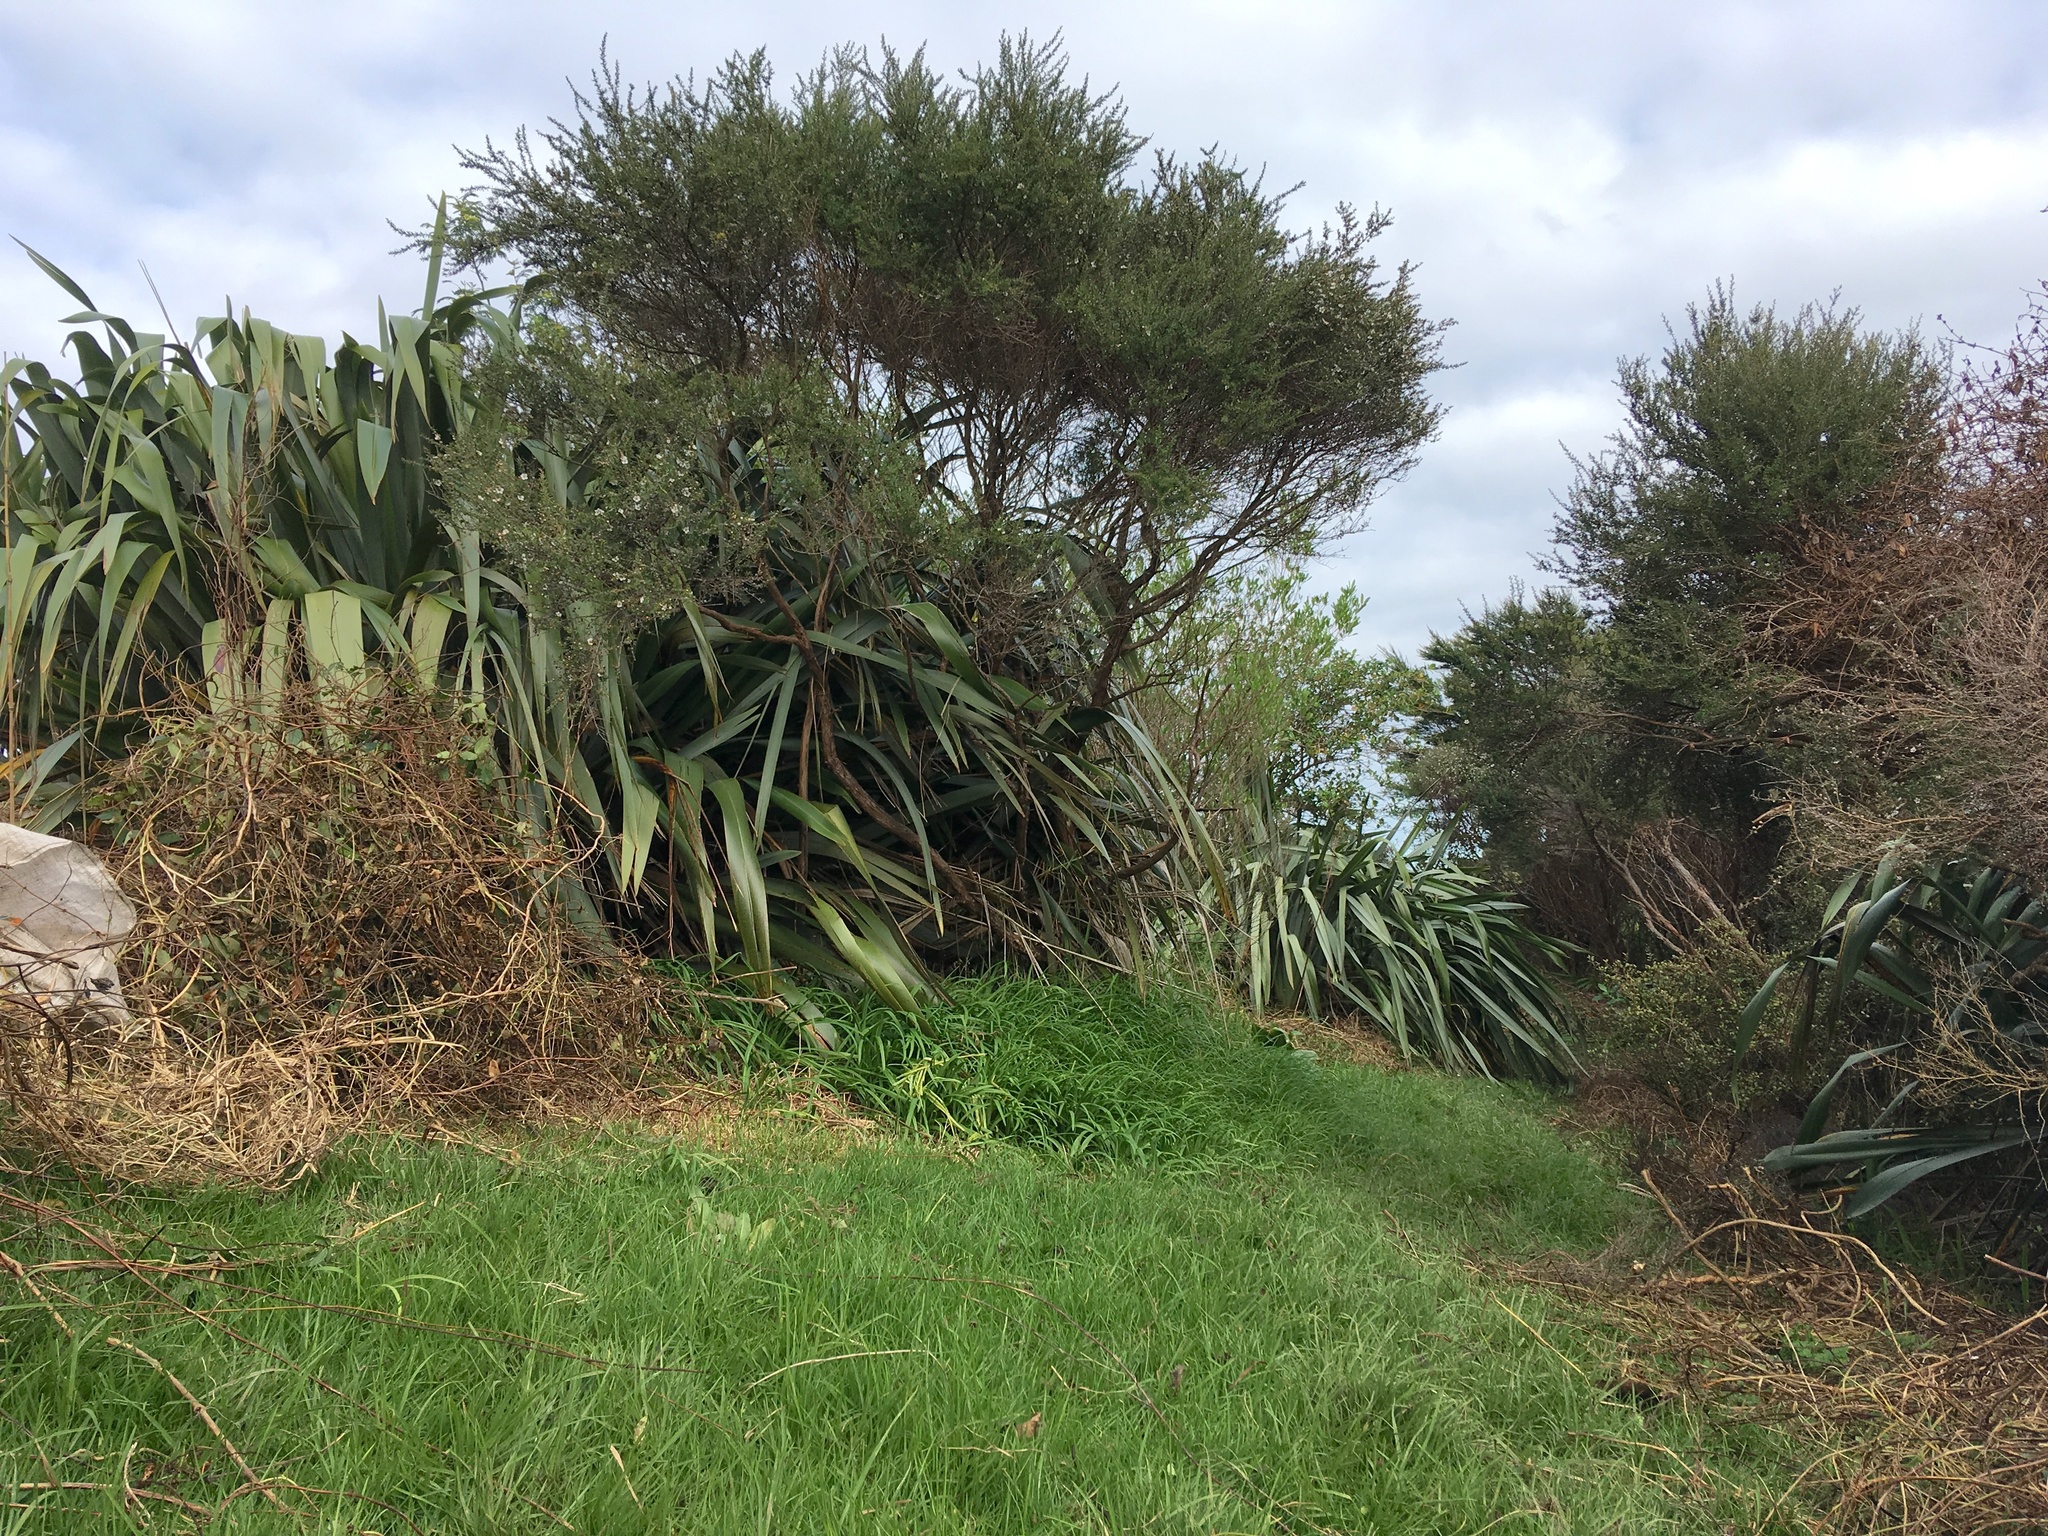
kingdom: Plantae
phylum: Tracheophyta
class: Liliopsida
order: Poales
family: Poaceae
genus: Cenchrus
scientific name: Cenchrus clandestinus
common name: Kikuyugrass
